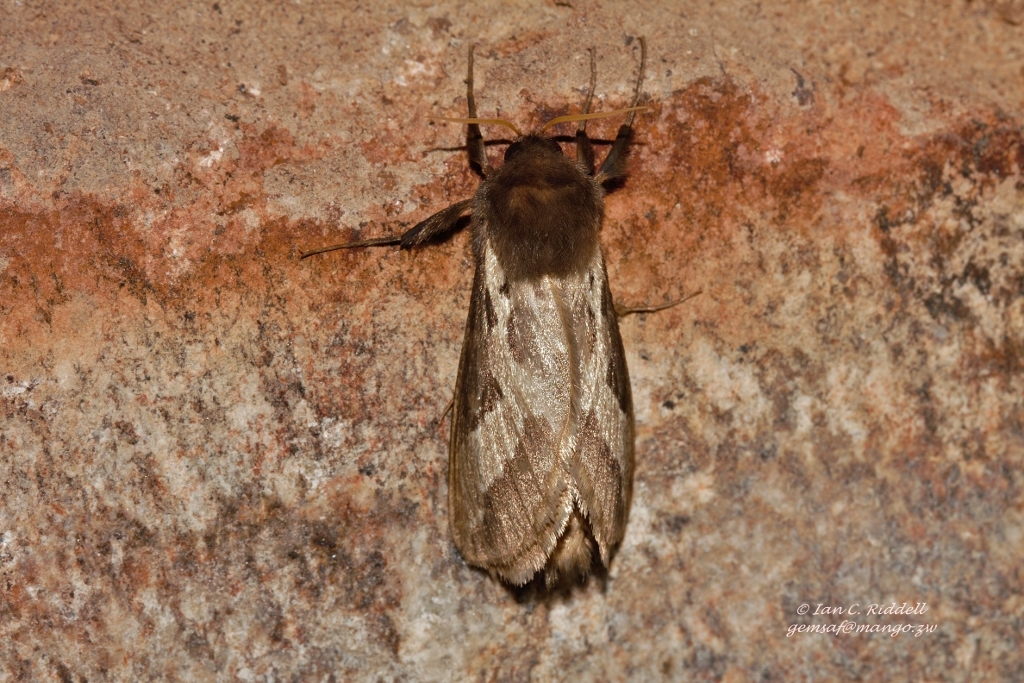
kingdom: Animalia
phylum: Arthropoda
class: Insecta
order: Lepidoptera
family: Hepialidae
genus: Eudalaca
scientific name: Eudalaca ammon
